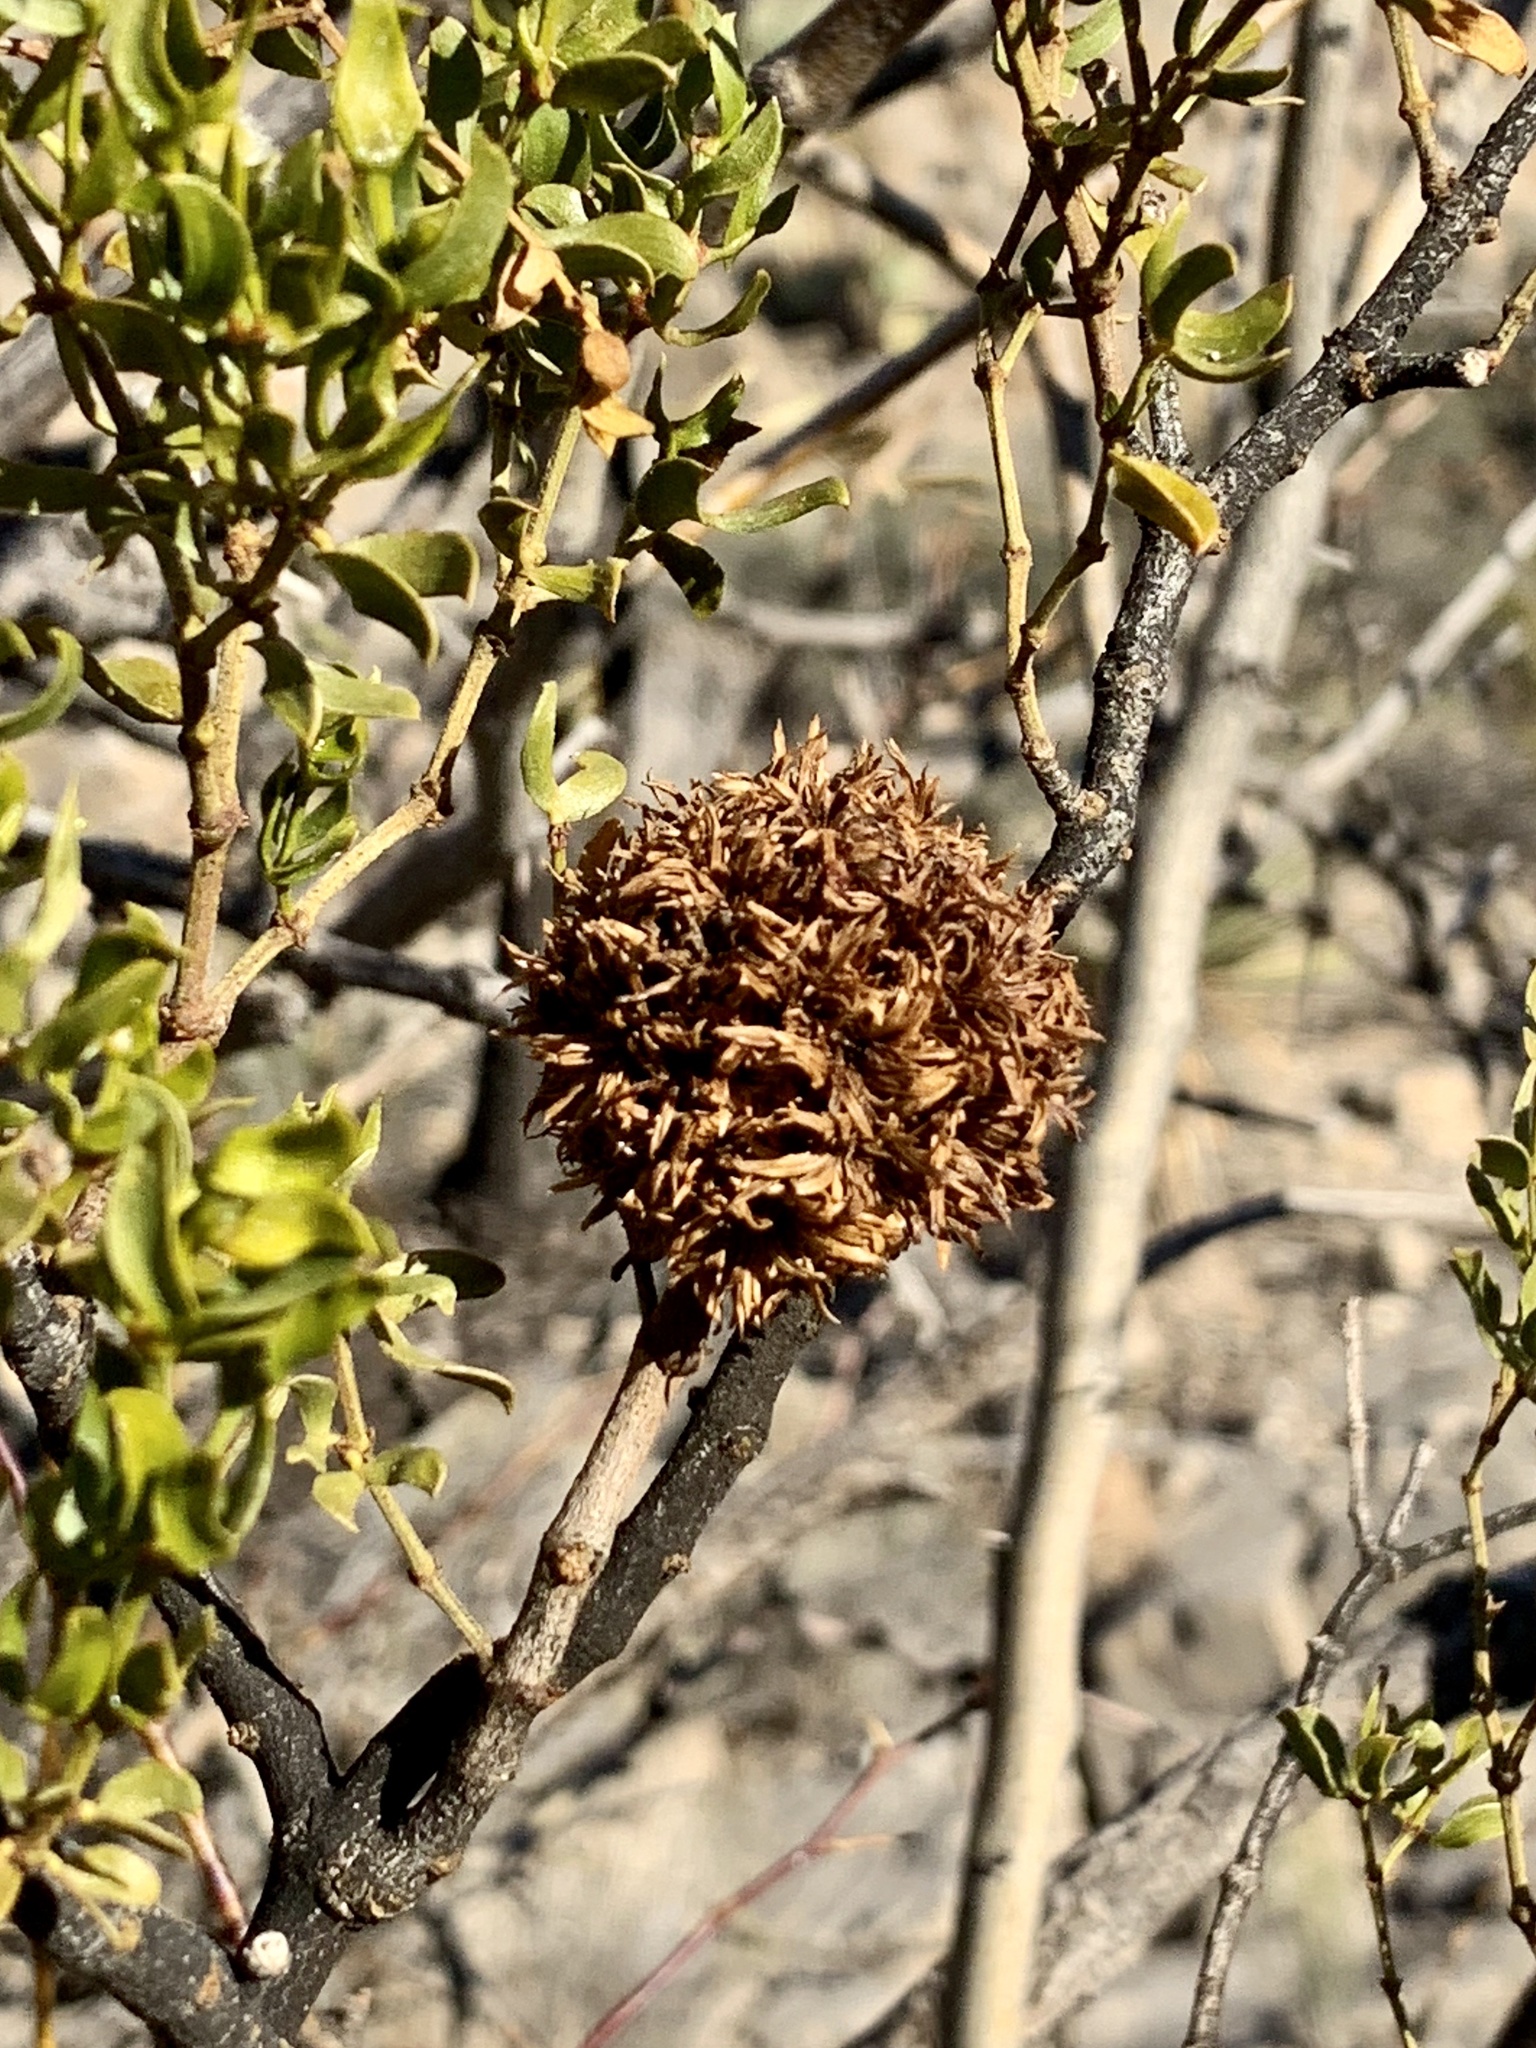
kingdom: Animalia
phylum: Arthropoda
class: Insecta
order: Diptera
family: Cecidomyiidae
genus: Asphondylia
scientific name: Asphondylia auripila
